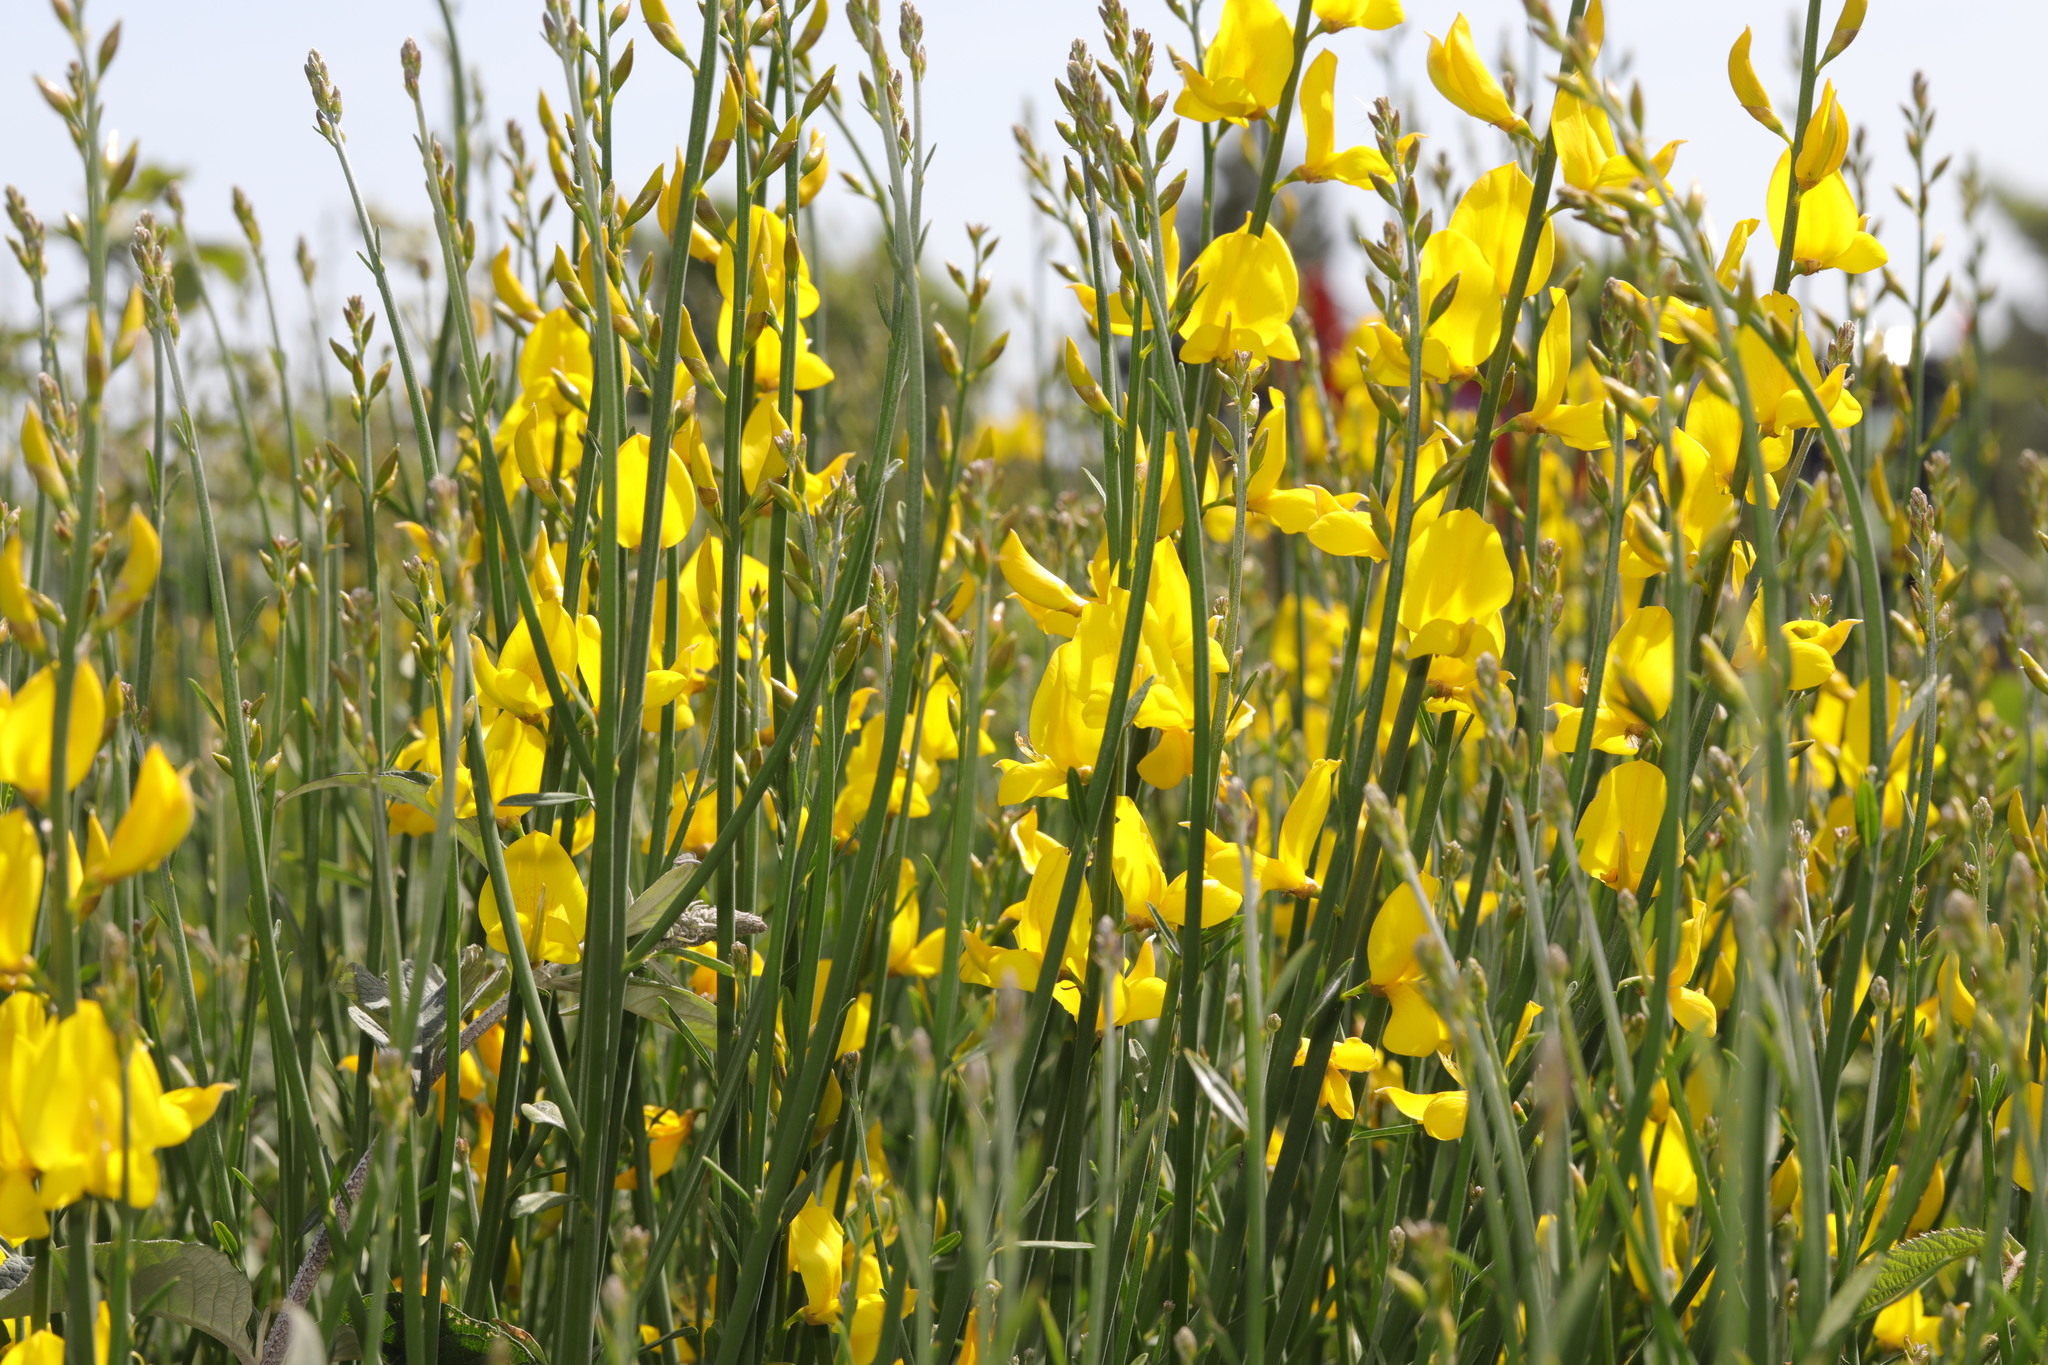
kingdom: Plantae
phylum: Tracheophyta
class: Magnoliopsida
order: Fabales
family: Fabaceae
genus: Spartium
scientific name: Spartium junceum
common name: Spanish broom
